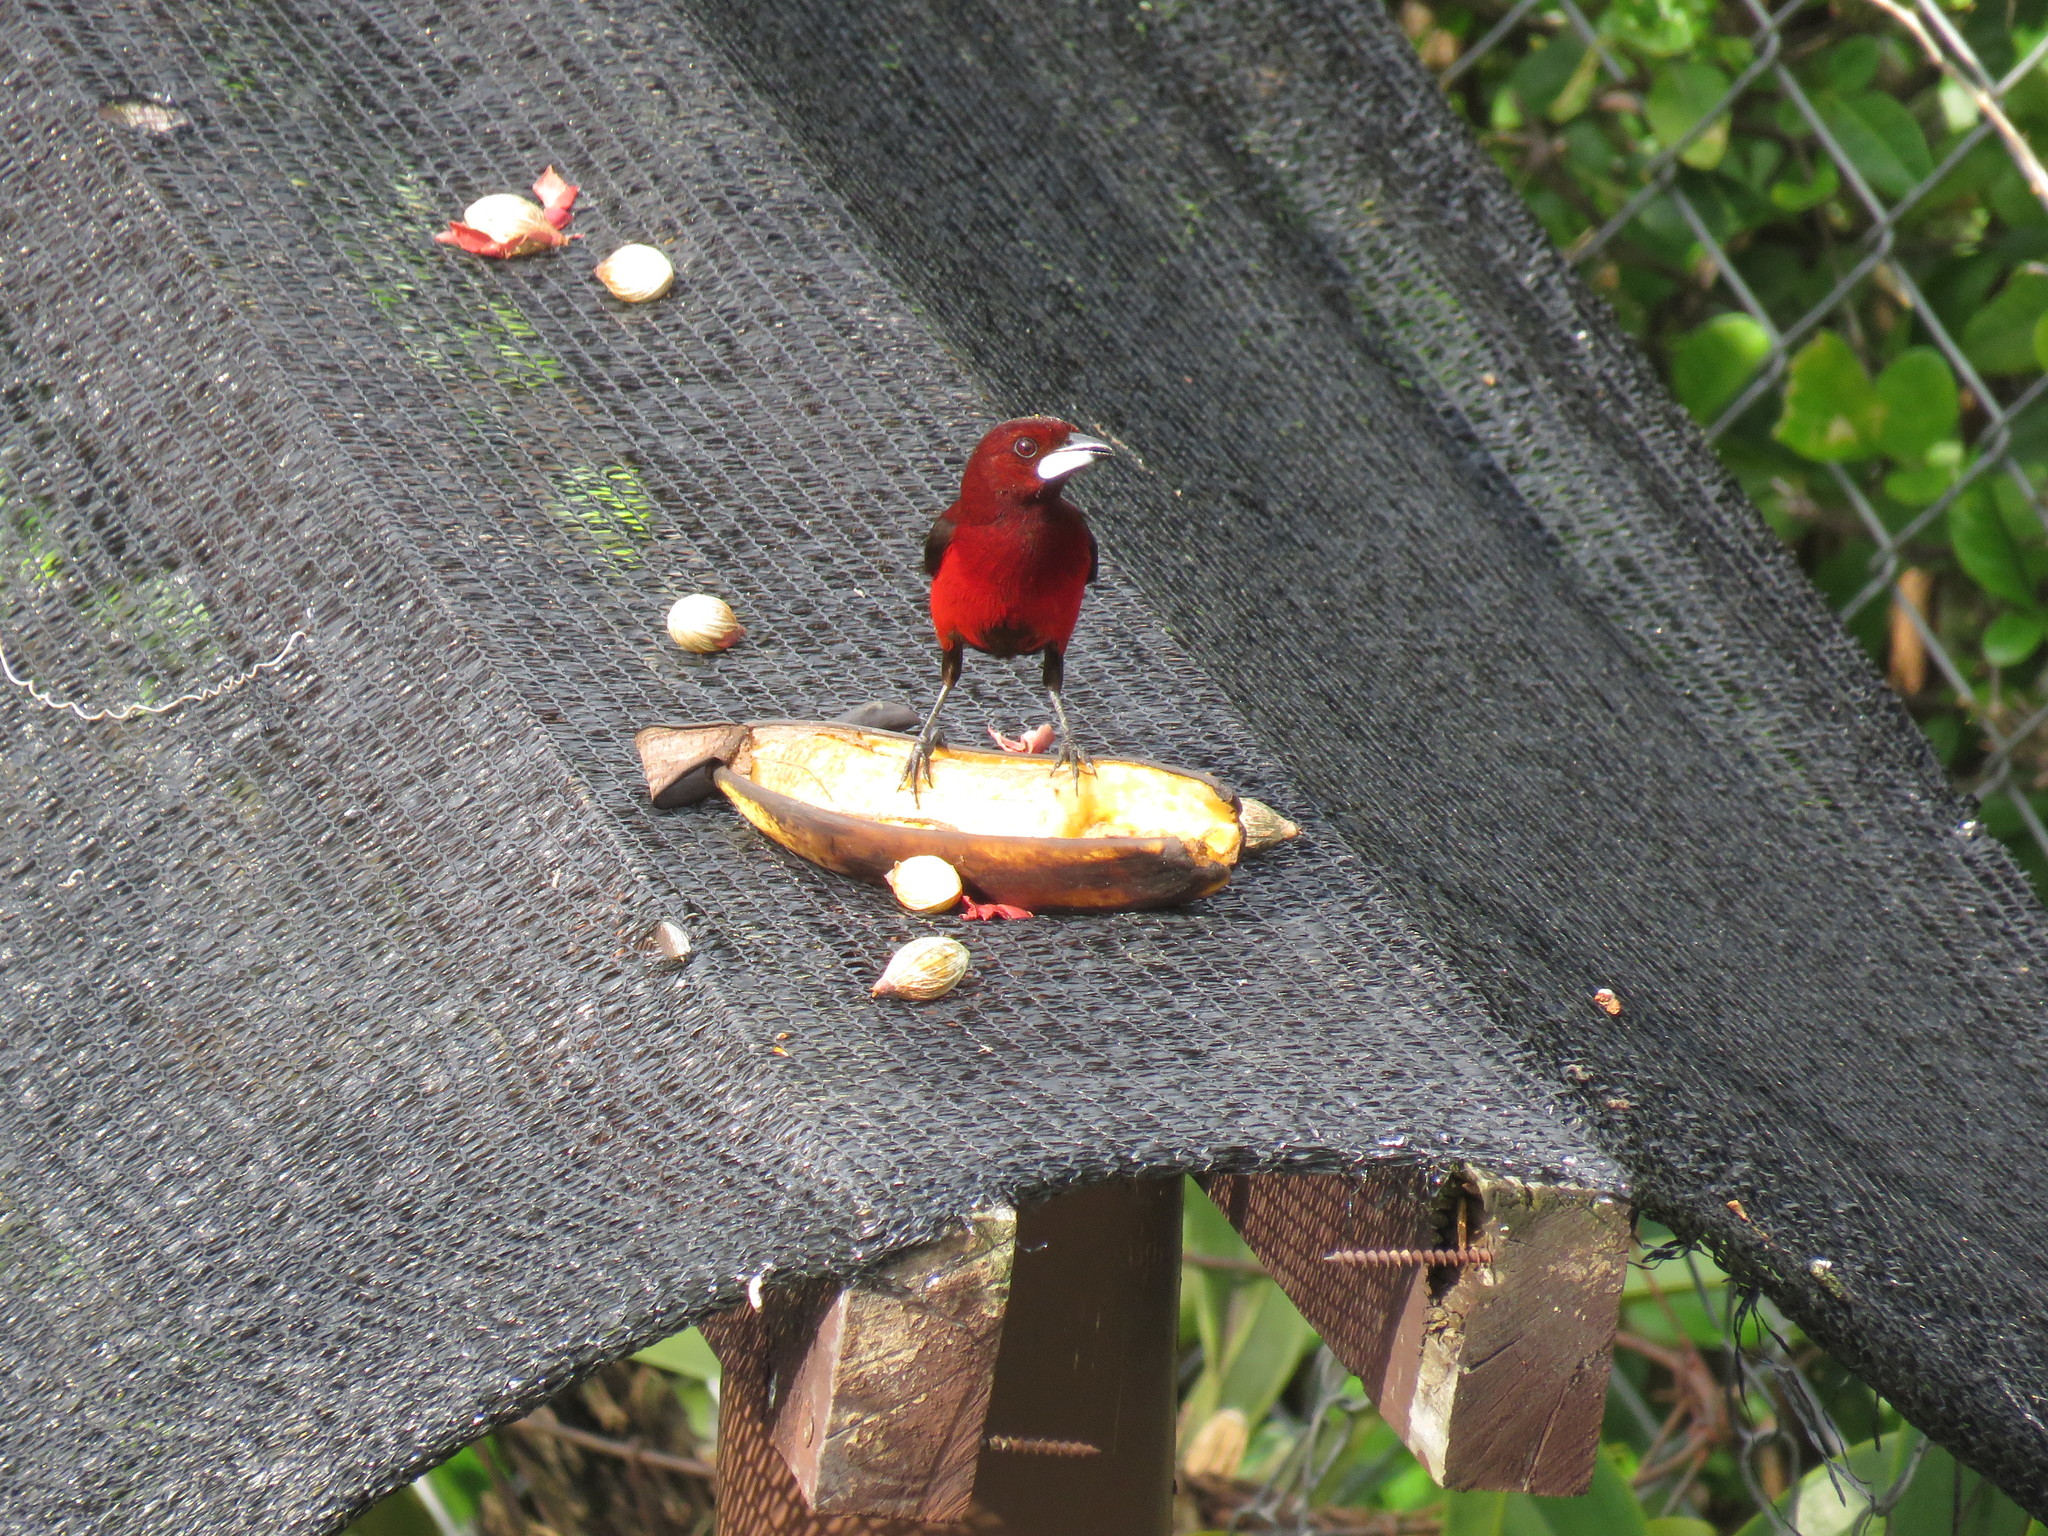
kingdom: Animalia
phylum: Chordata
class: Aves
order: Passeriformes
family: Thraupidae
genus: Ramphocelus
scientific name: Ramphocelus dimidiatus
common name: Crimson-backed tanager
